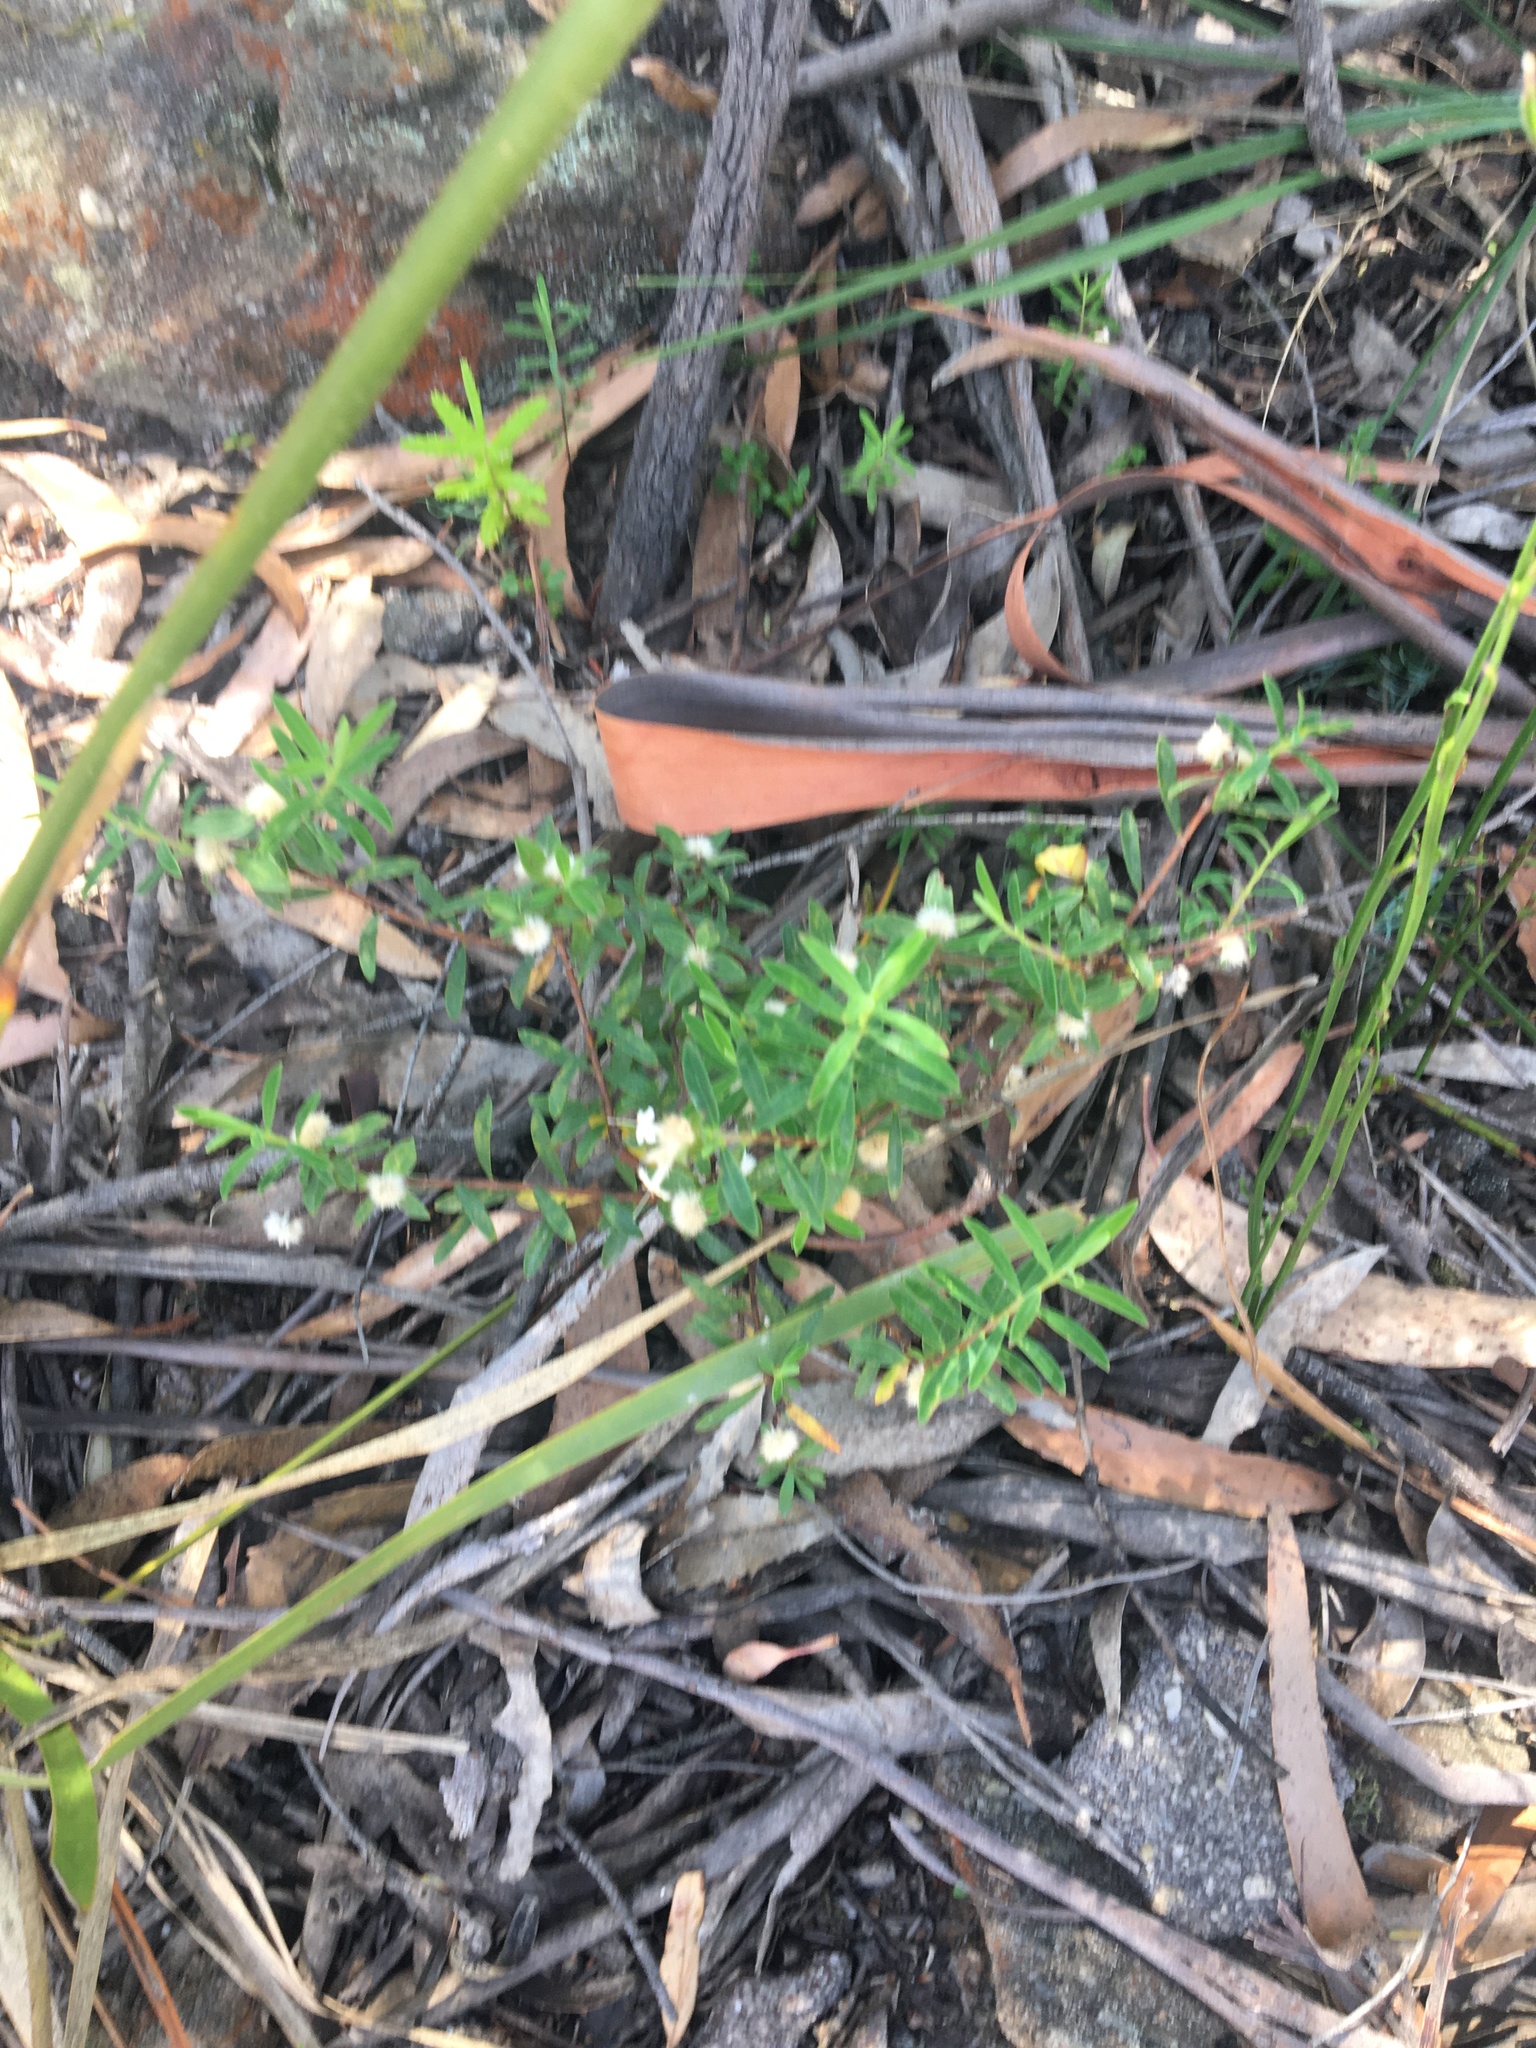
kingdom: Plantae
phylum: Tracheophyta
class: Magnoliopsida
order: Malvales
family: Thymelaeaceae
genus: Pimelea
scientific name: Pimelea linifolia
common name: Queen-of-the-bush
